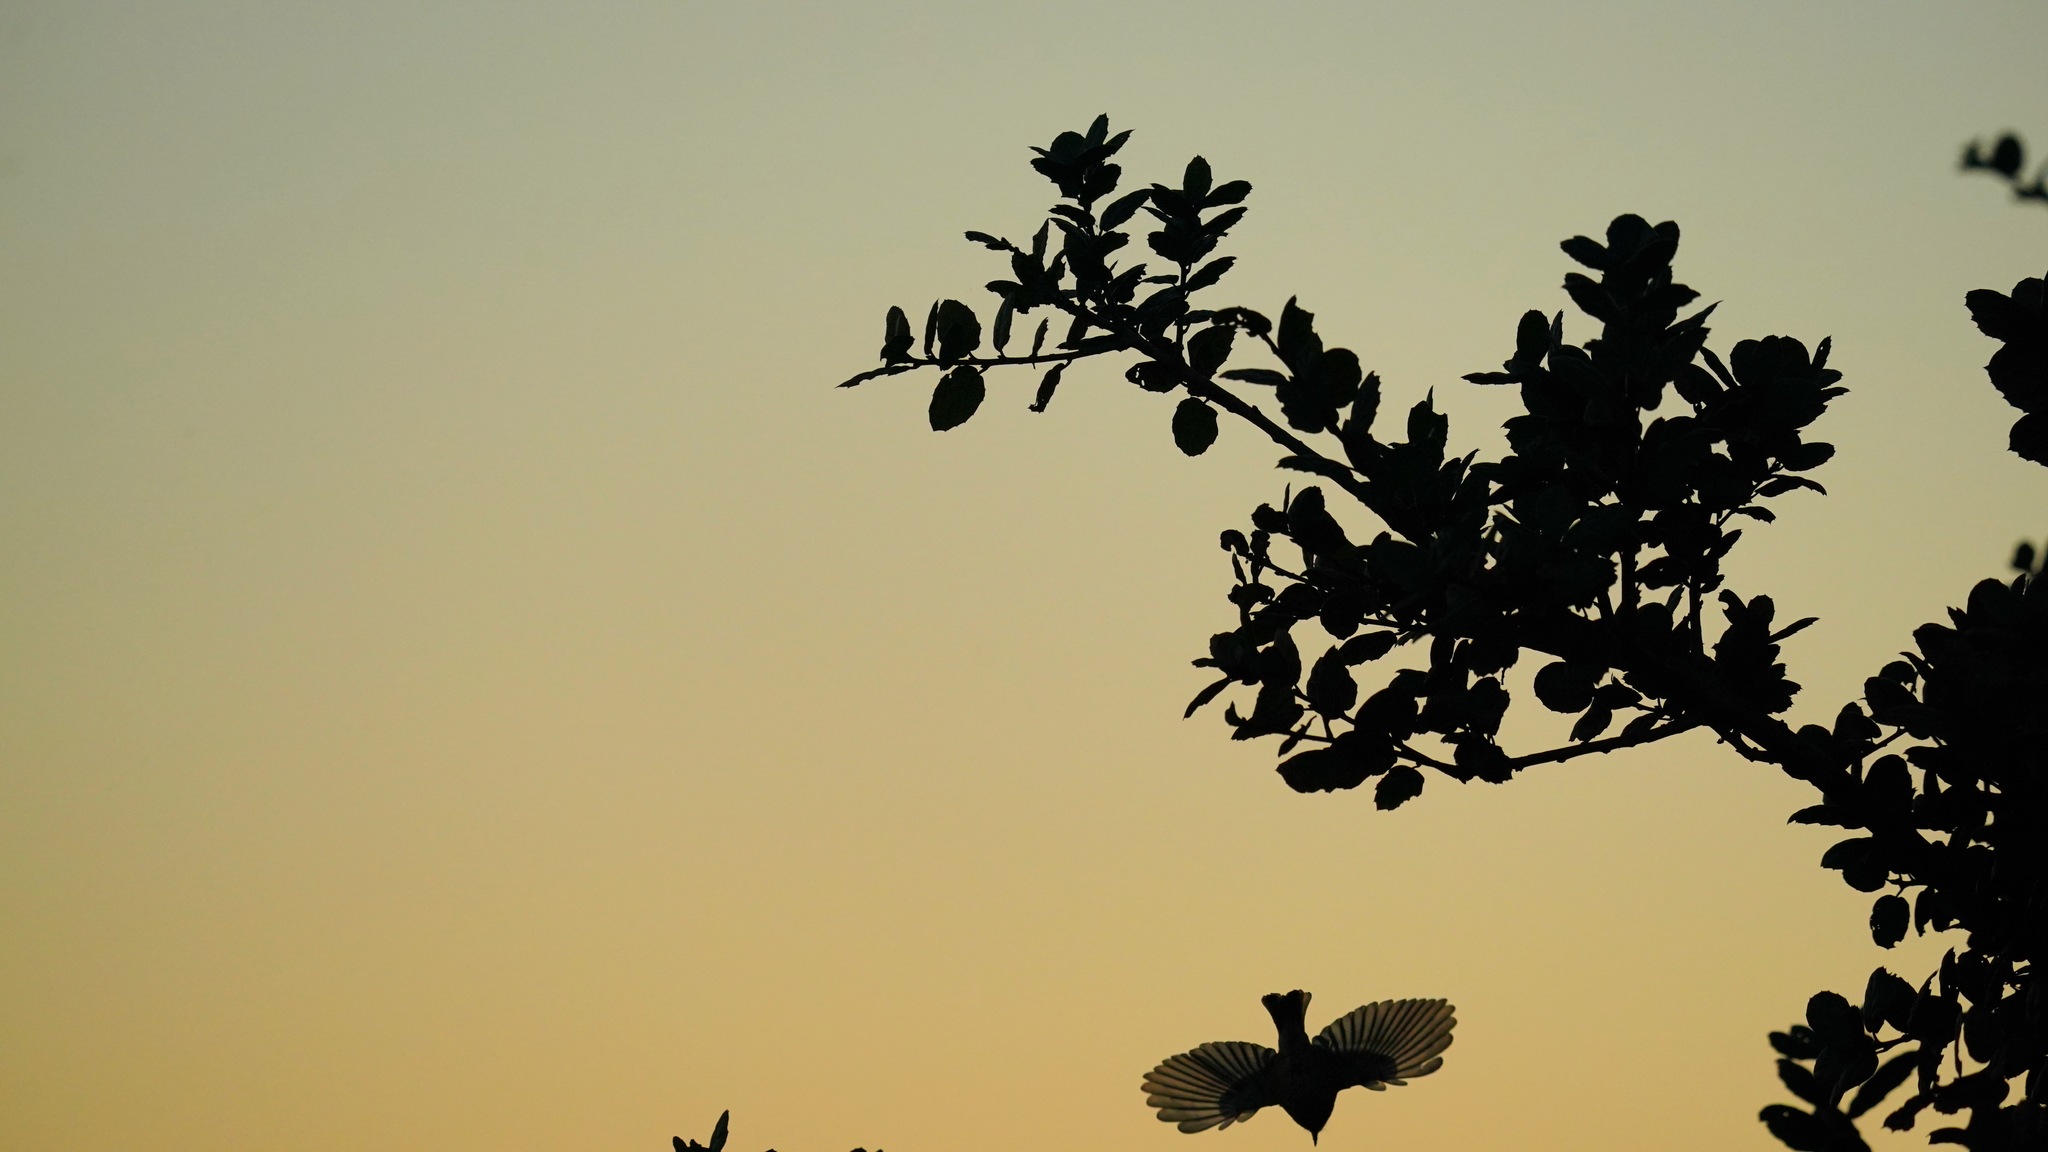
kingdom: Animalia
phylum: Chordata
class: Aves
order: Passeriformes
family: Regulidae
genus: Regulus
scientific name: Regulus calendula
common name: Ruby-crowned kinglet
